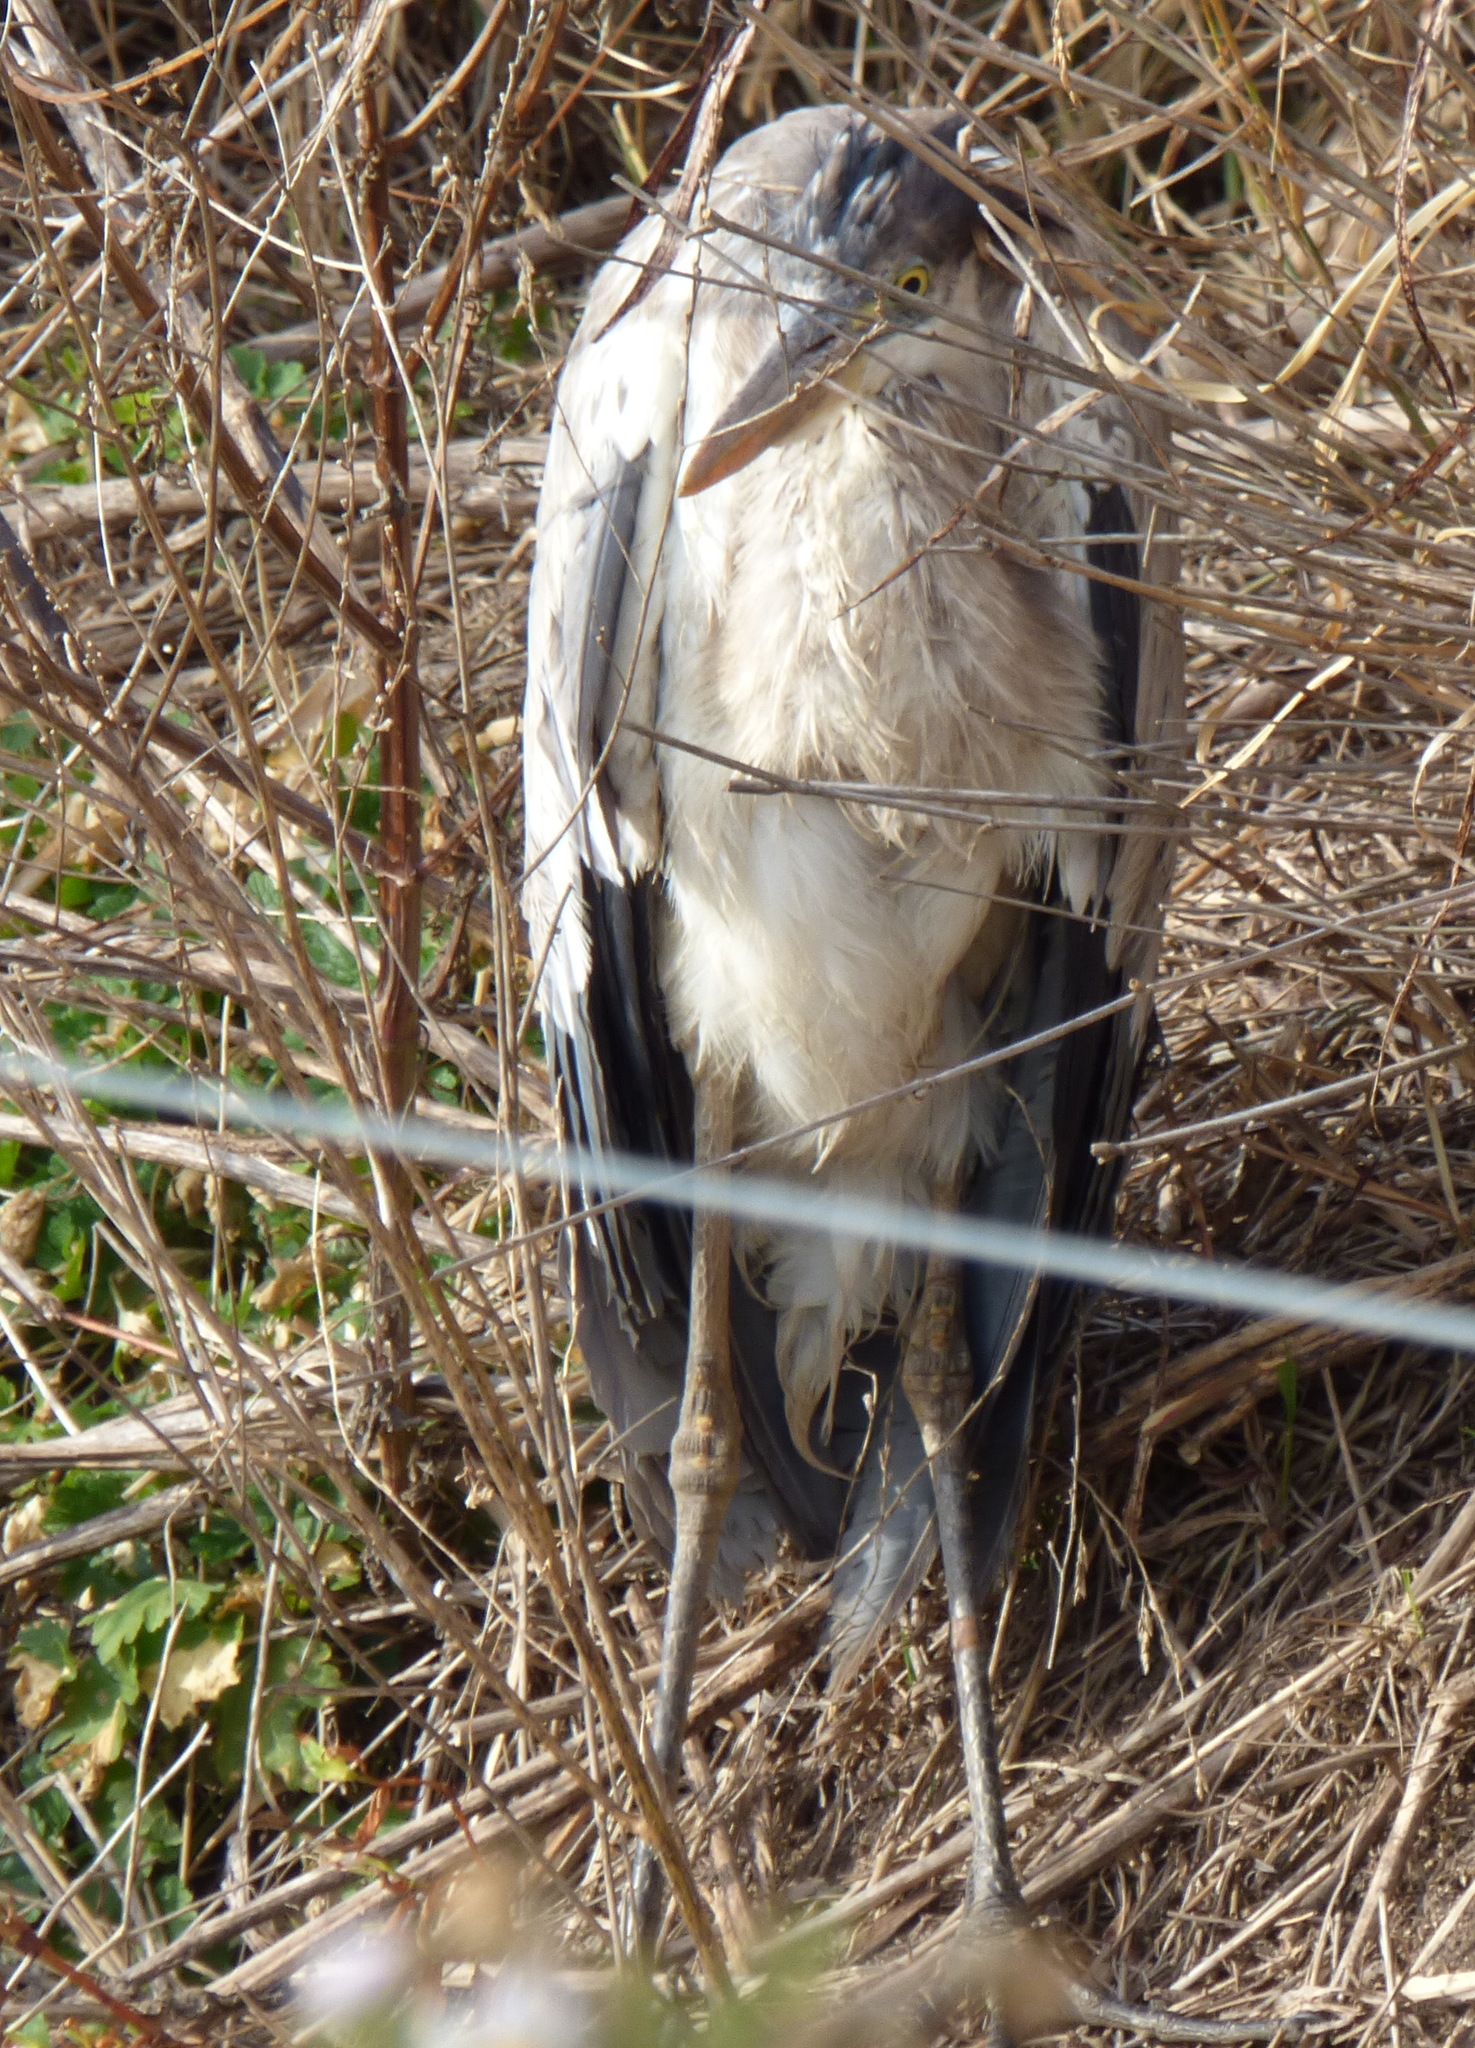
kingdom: Animalia
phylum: Chordata
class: Aves
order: Pelecaniformes
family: Ardeidae
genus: Ardea
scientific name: Ardea cocoi
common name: Cocoi heron
